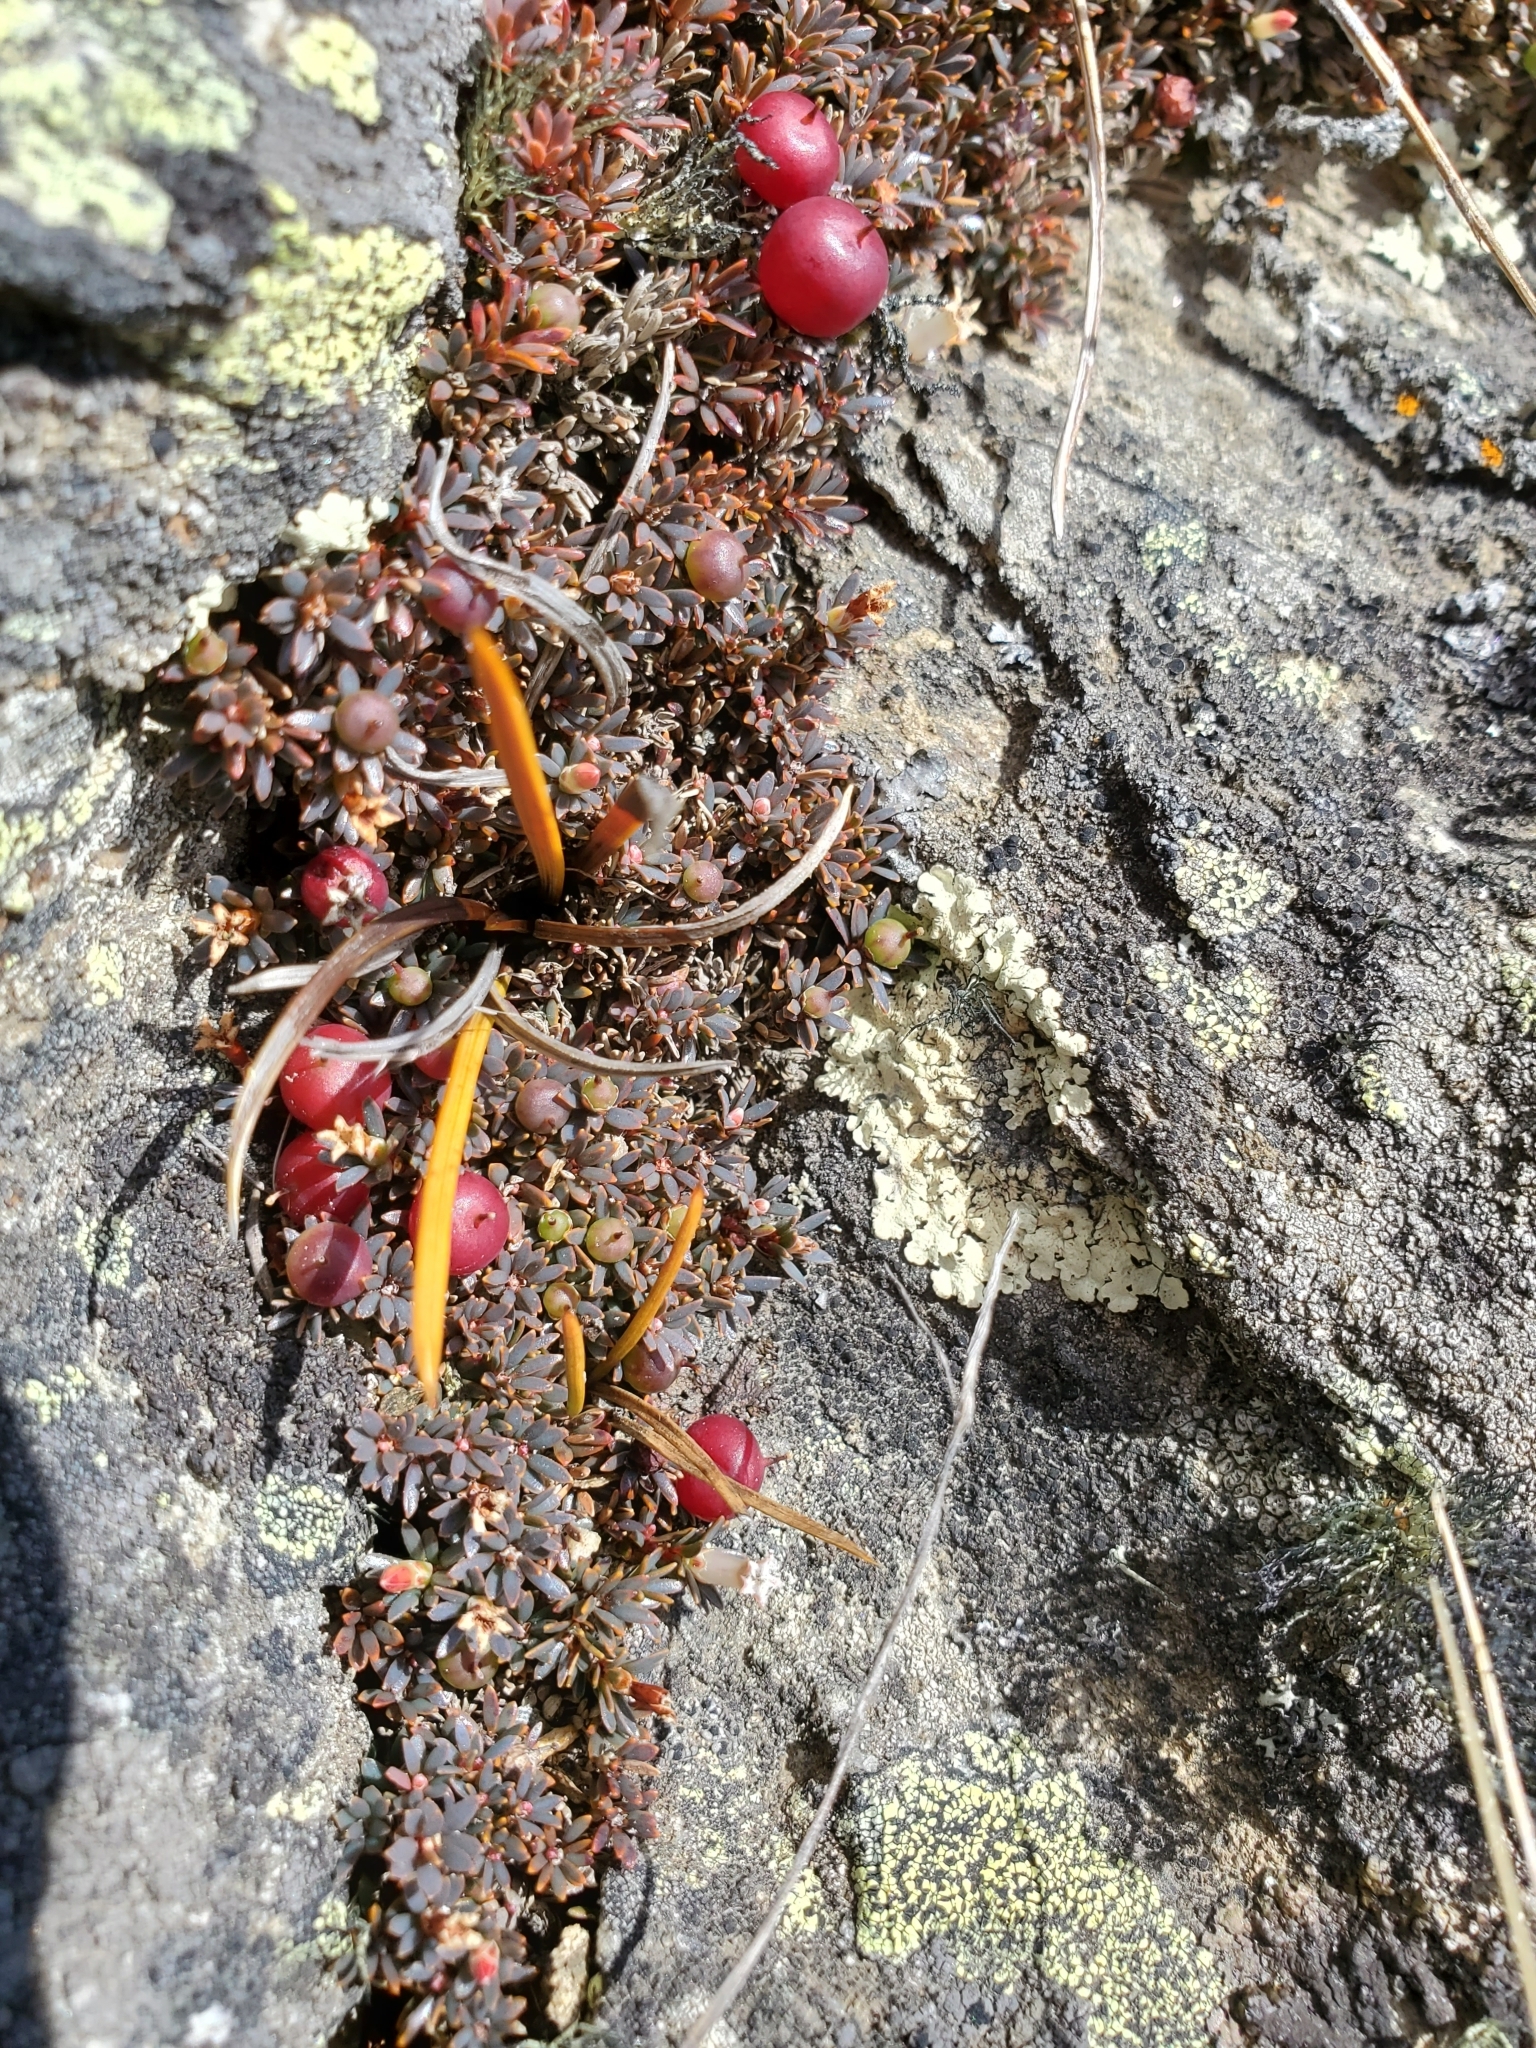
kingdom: Plantae
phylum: Tracheophyta
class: Magnoliopsida
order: Ericales
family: Ericaceae
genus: Pentachondra
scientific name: Pentachondra pumila
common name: Carpet-heath
